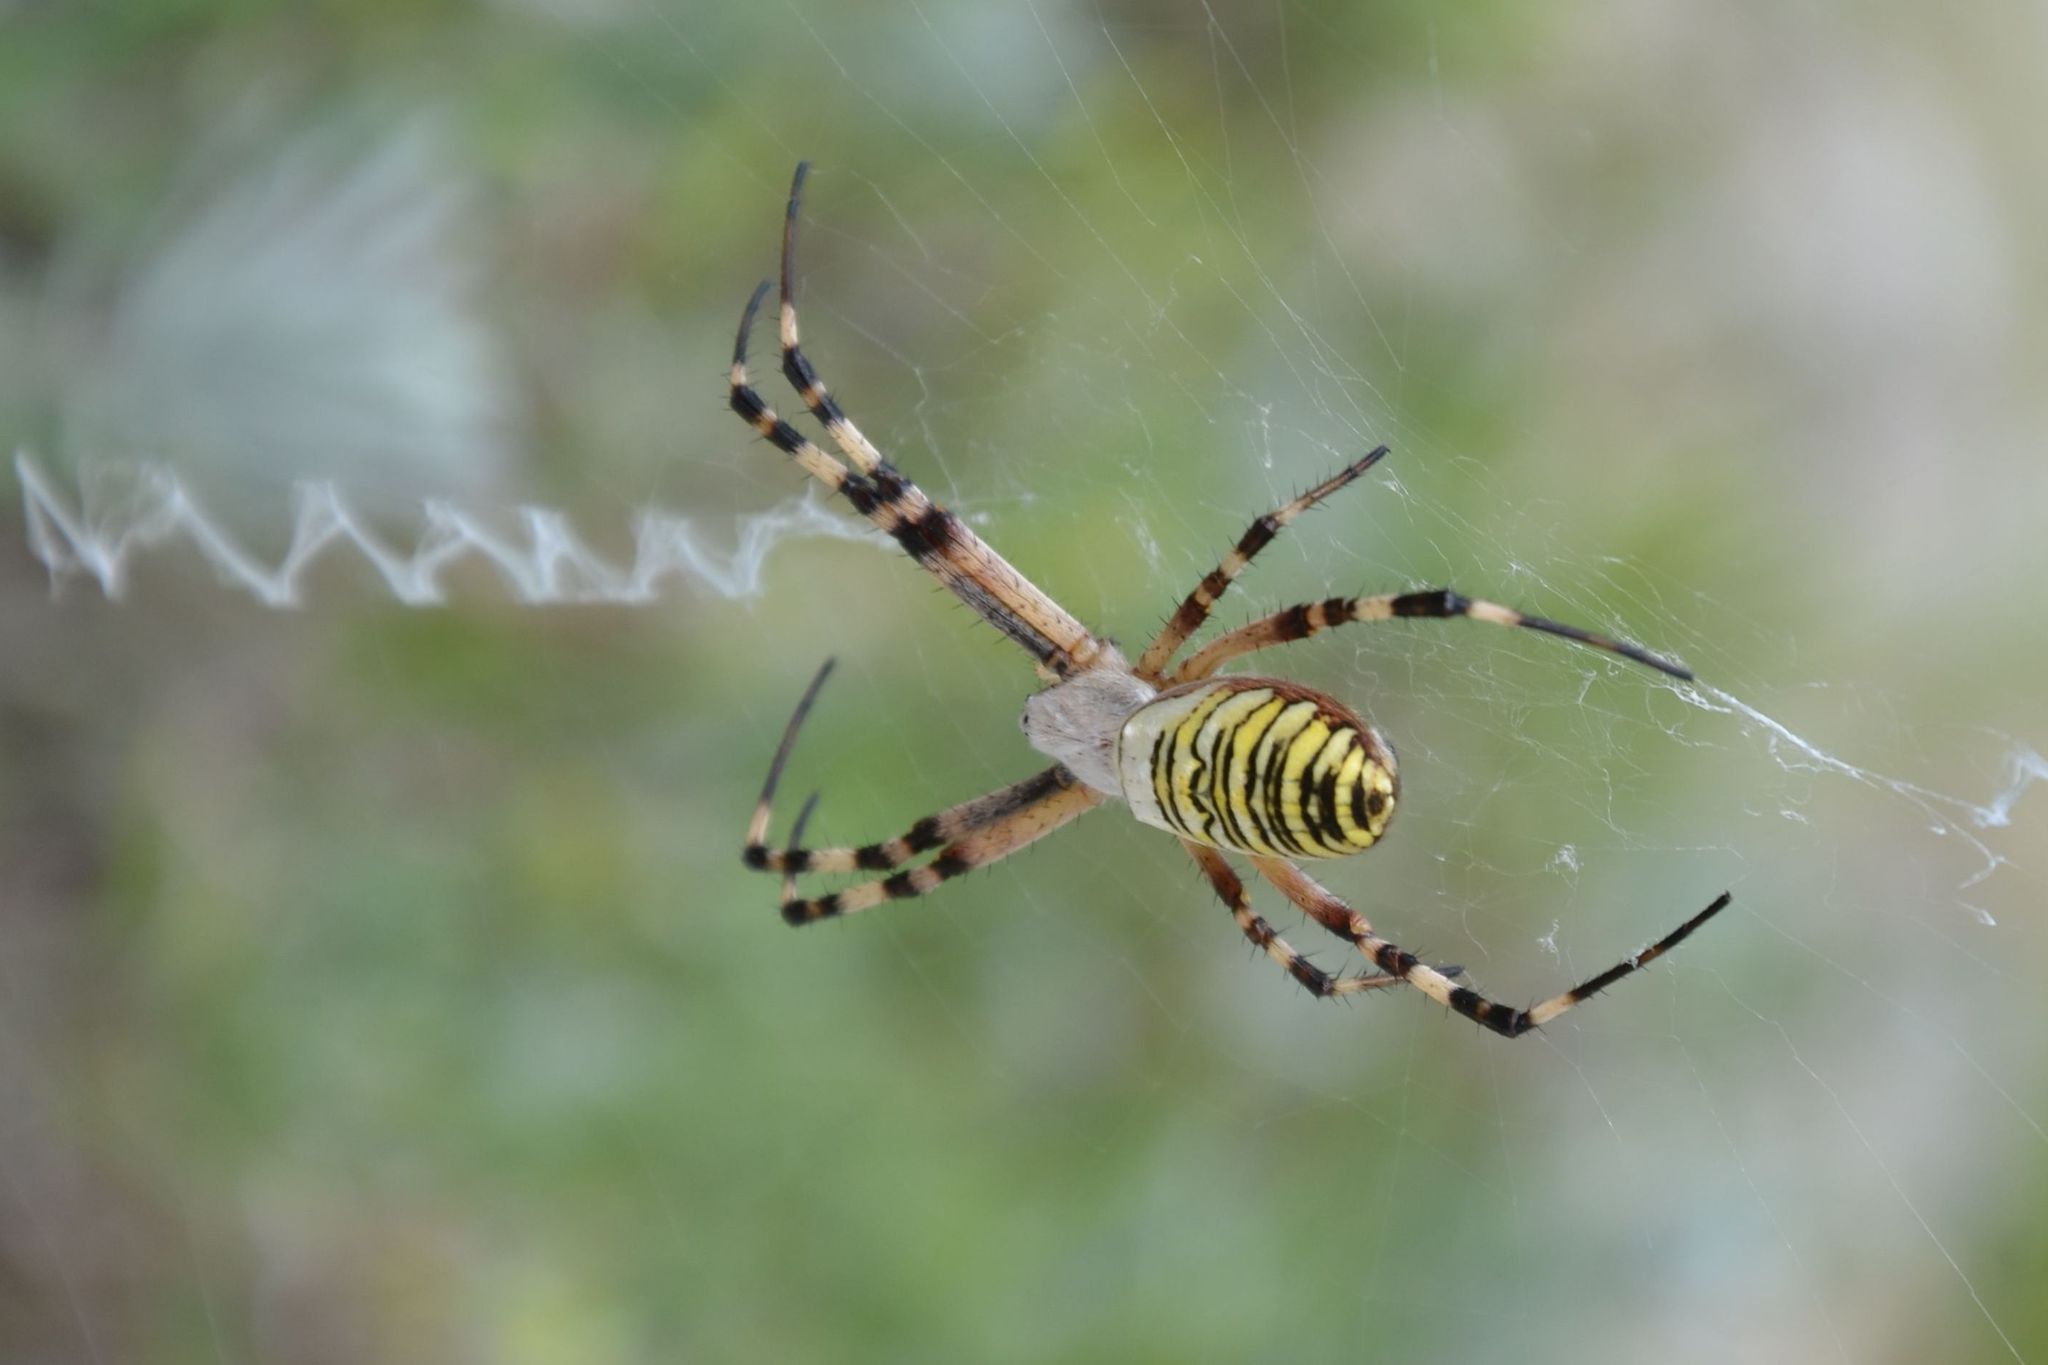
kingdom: Animalia
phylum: Arthropoda
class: Arachnida
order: Araneae
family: Araneidae
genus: Argiope
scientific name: Argiope bruennichi
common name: Wasp spider
